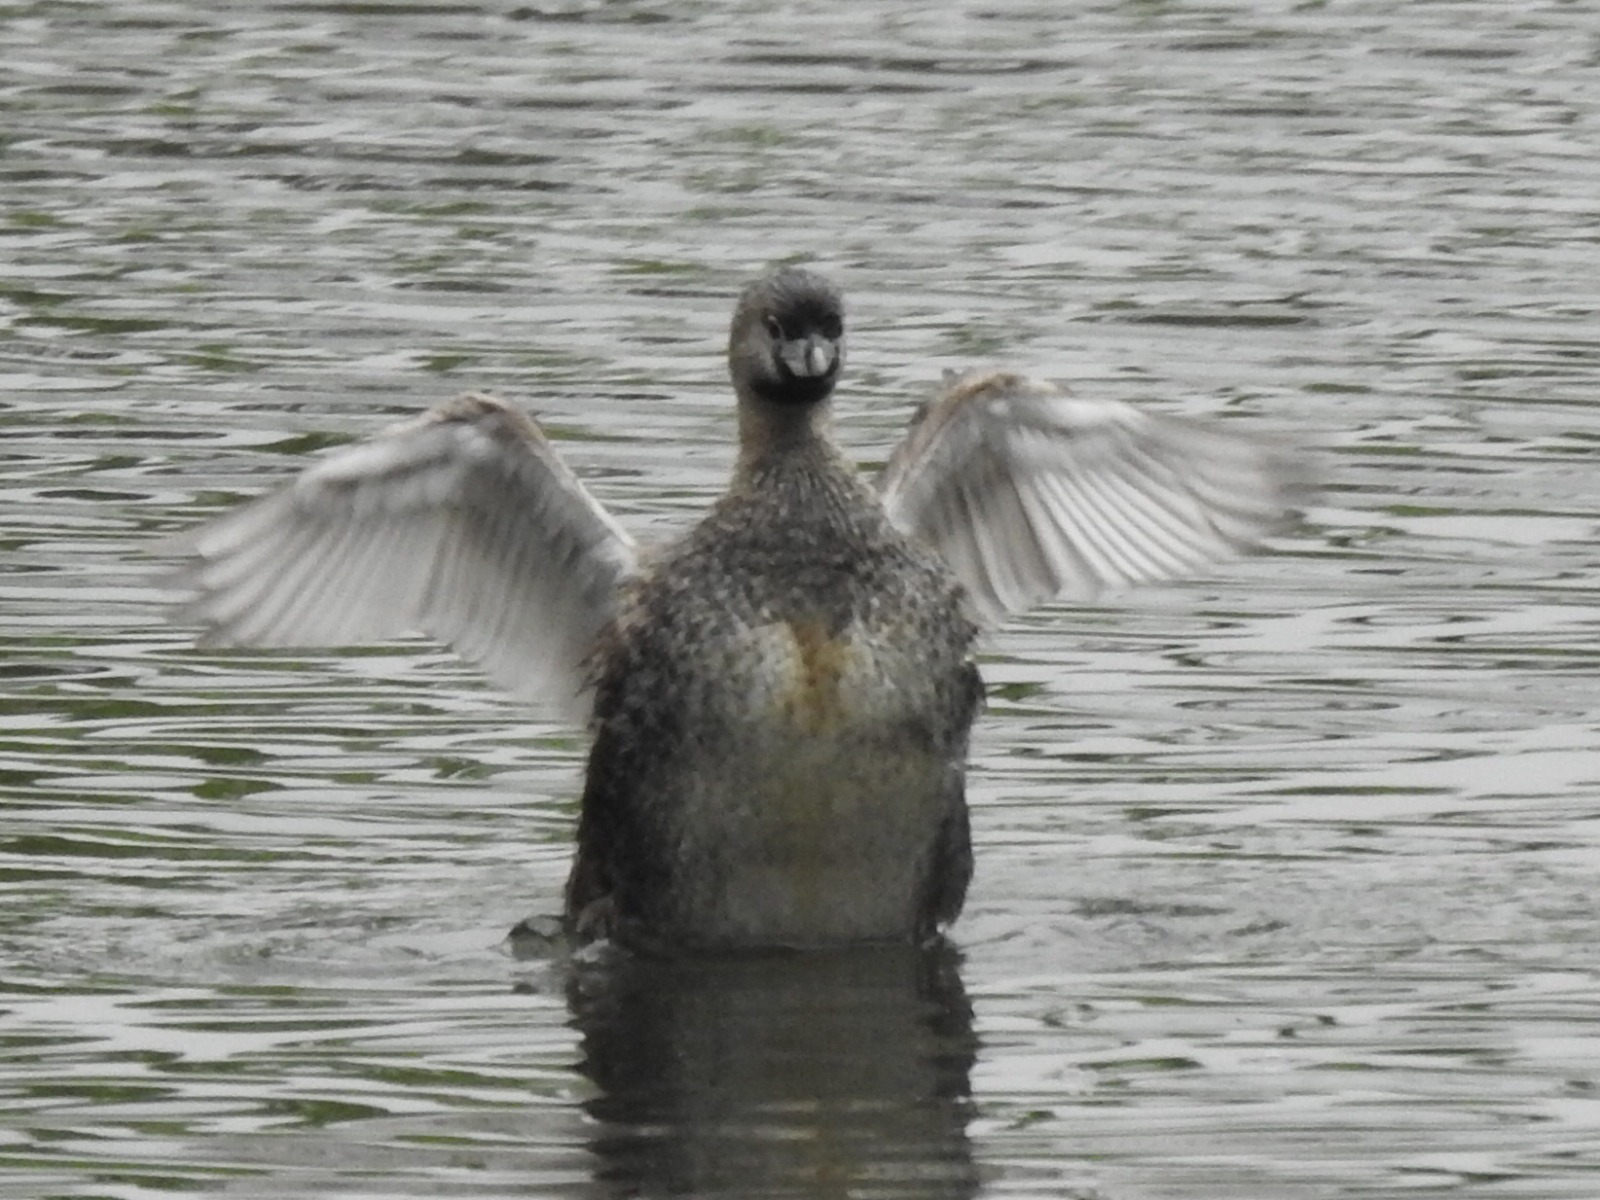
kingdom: Animalia
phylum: Chordata
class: Aves
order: Podicipediformes
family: Podicipedidae
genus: Podilymbus
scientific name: Podilymbus podiceps
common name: Pied-billed grebe
